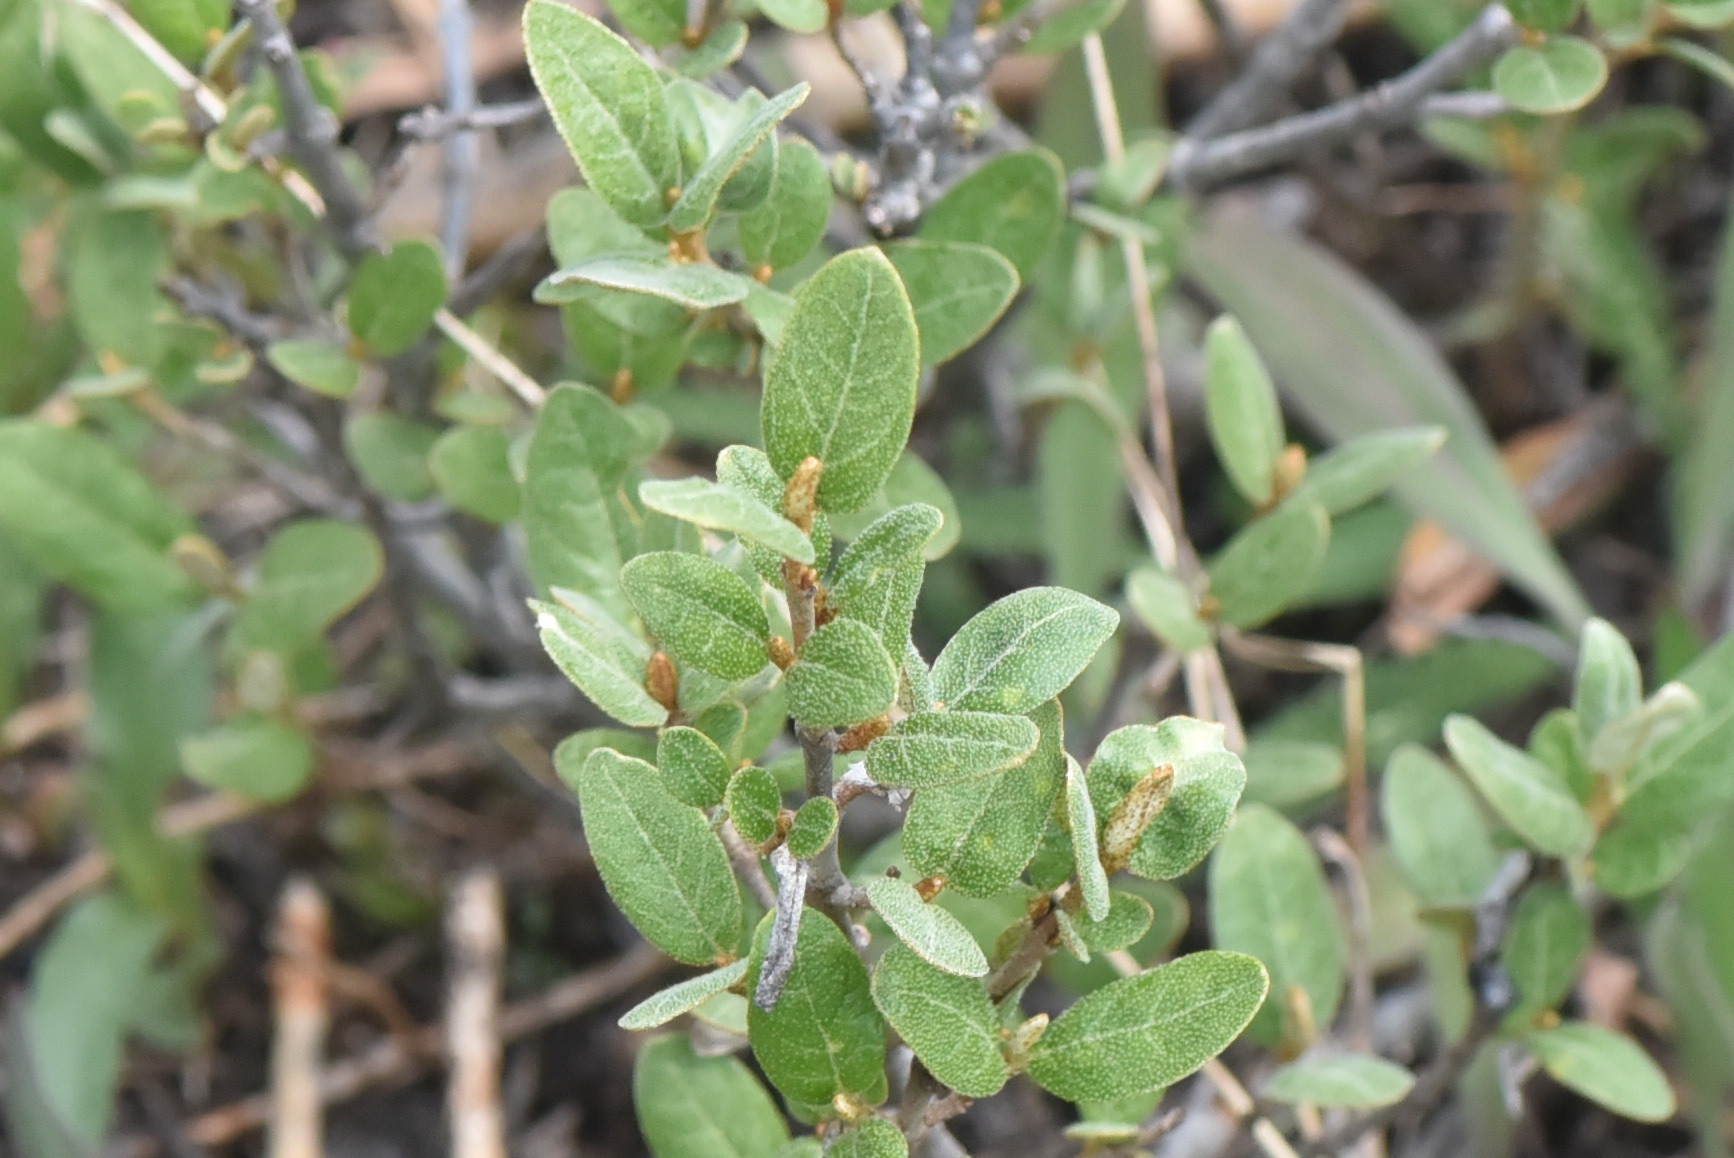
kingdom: Plantae
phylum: Tracheophyta
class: Magnoliopsida
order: Rosales
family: Elaeagnaceae
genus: Shepherdia
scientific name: Shepherdia canadensis
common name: Soapberry
